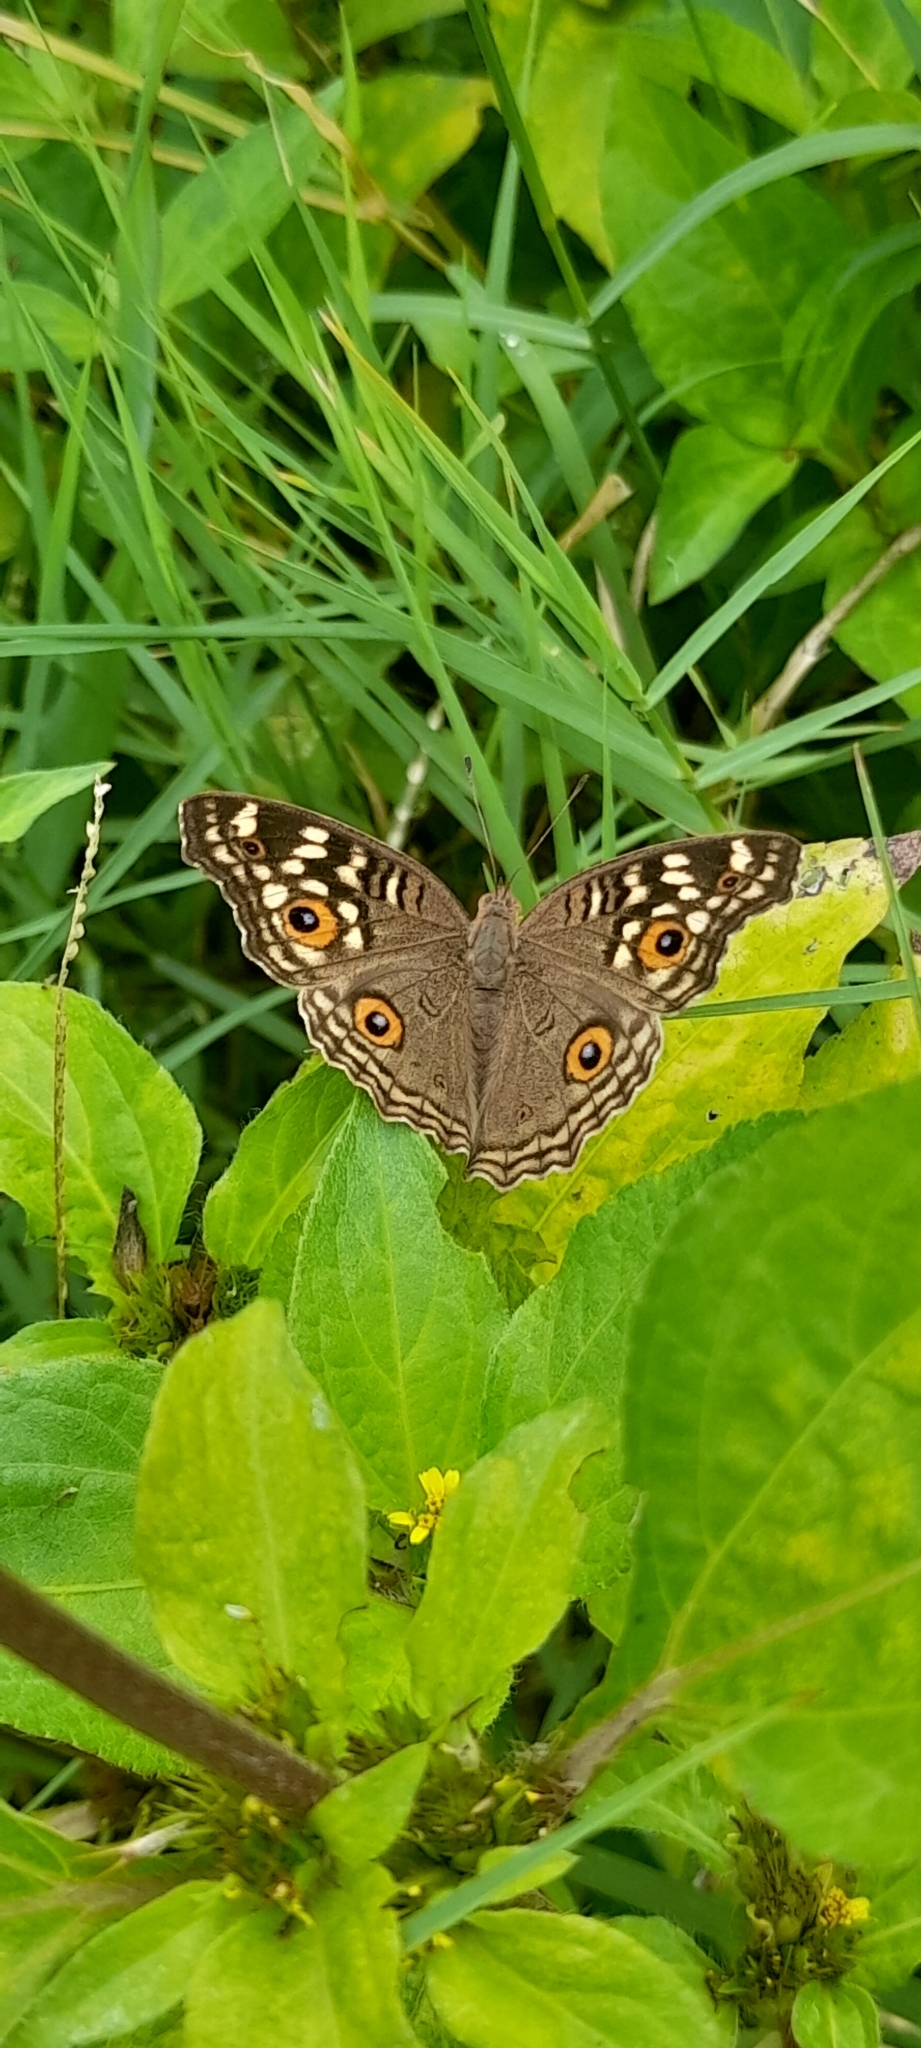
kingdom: Animalia
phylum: Arthropoda
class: Insecta
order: Lepidoptera
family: Nymphalidae
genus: Junonia
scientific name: Junonia lemonias
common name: Lemon pansy
